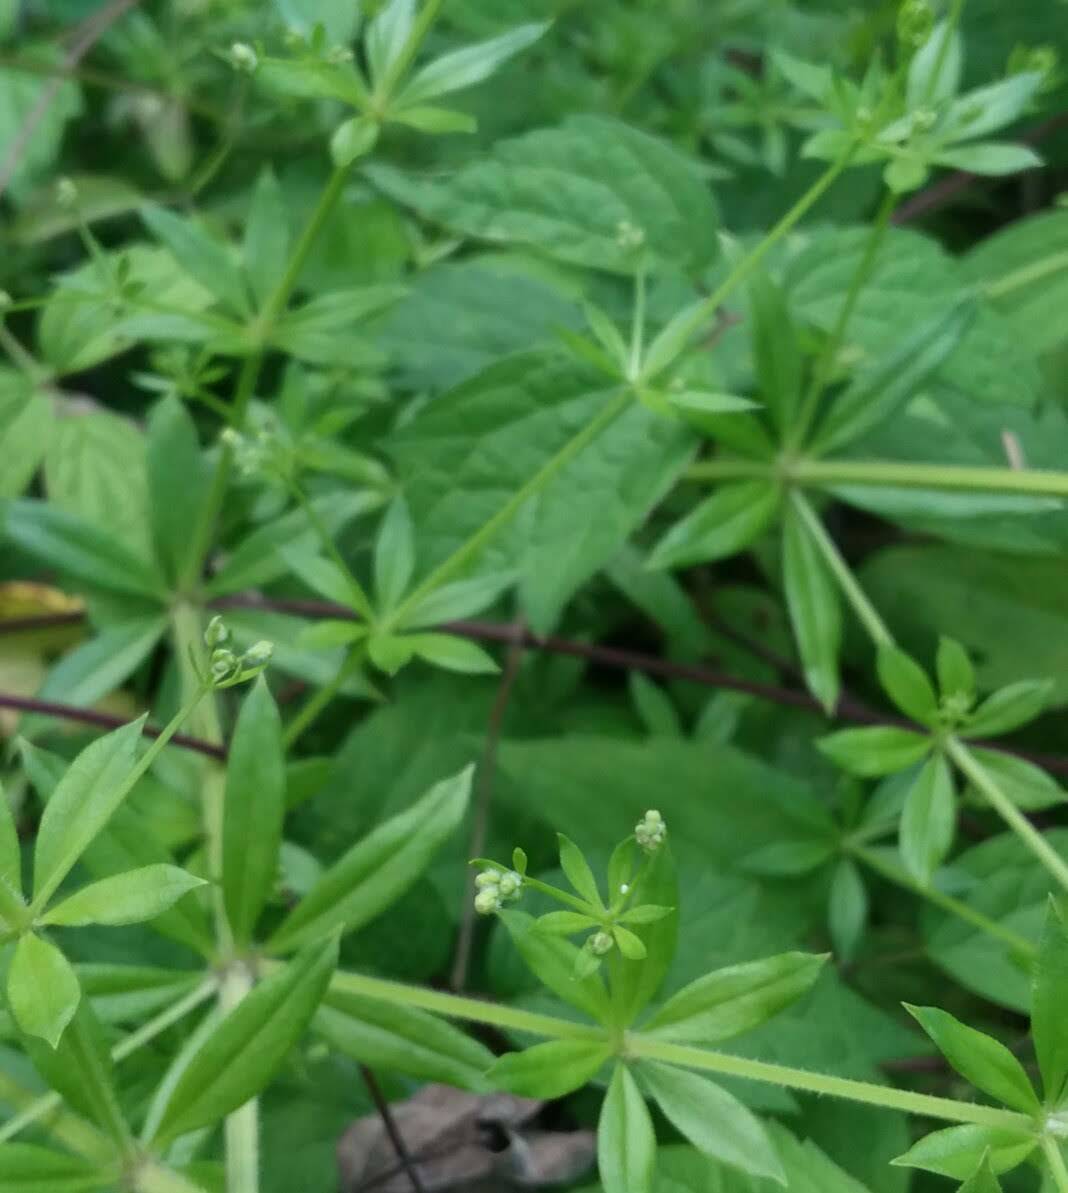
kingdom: Plantae
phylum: Tracheophyta
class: Magnoliopsida
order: Gentianales
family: Rubiaceae
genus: Galium
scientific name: Galium triflorum
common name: Fragrant bedstraw
